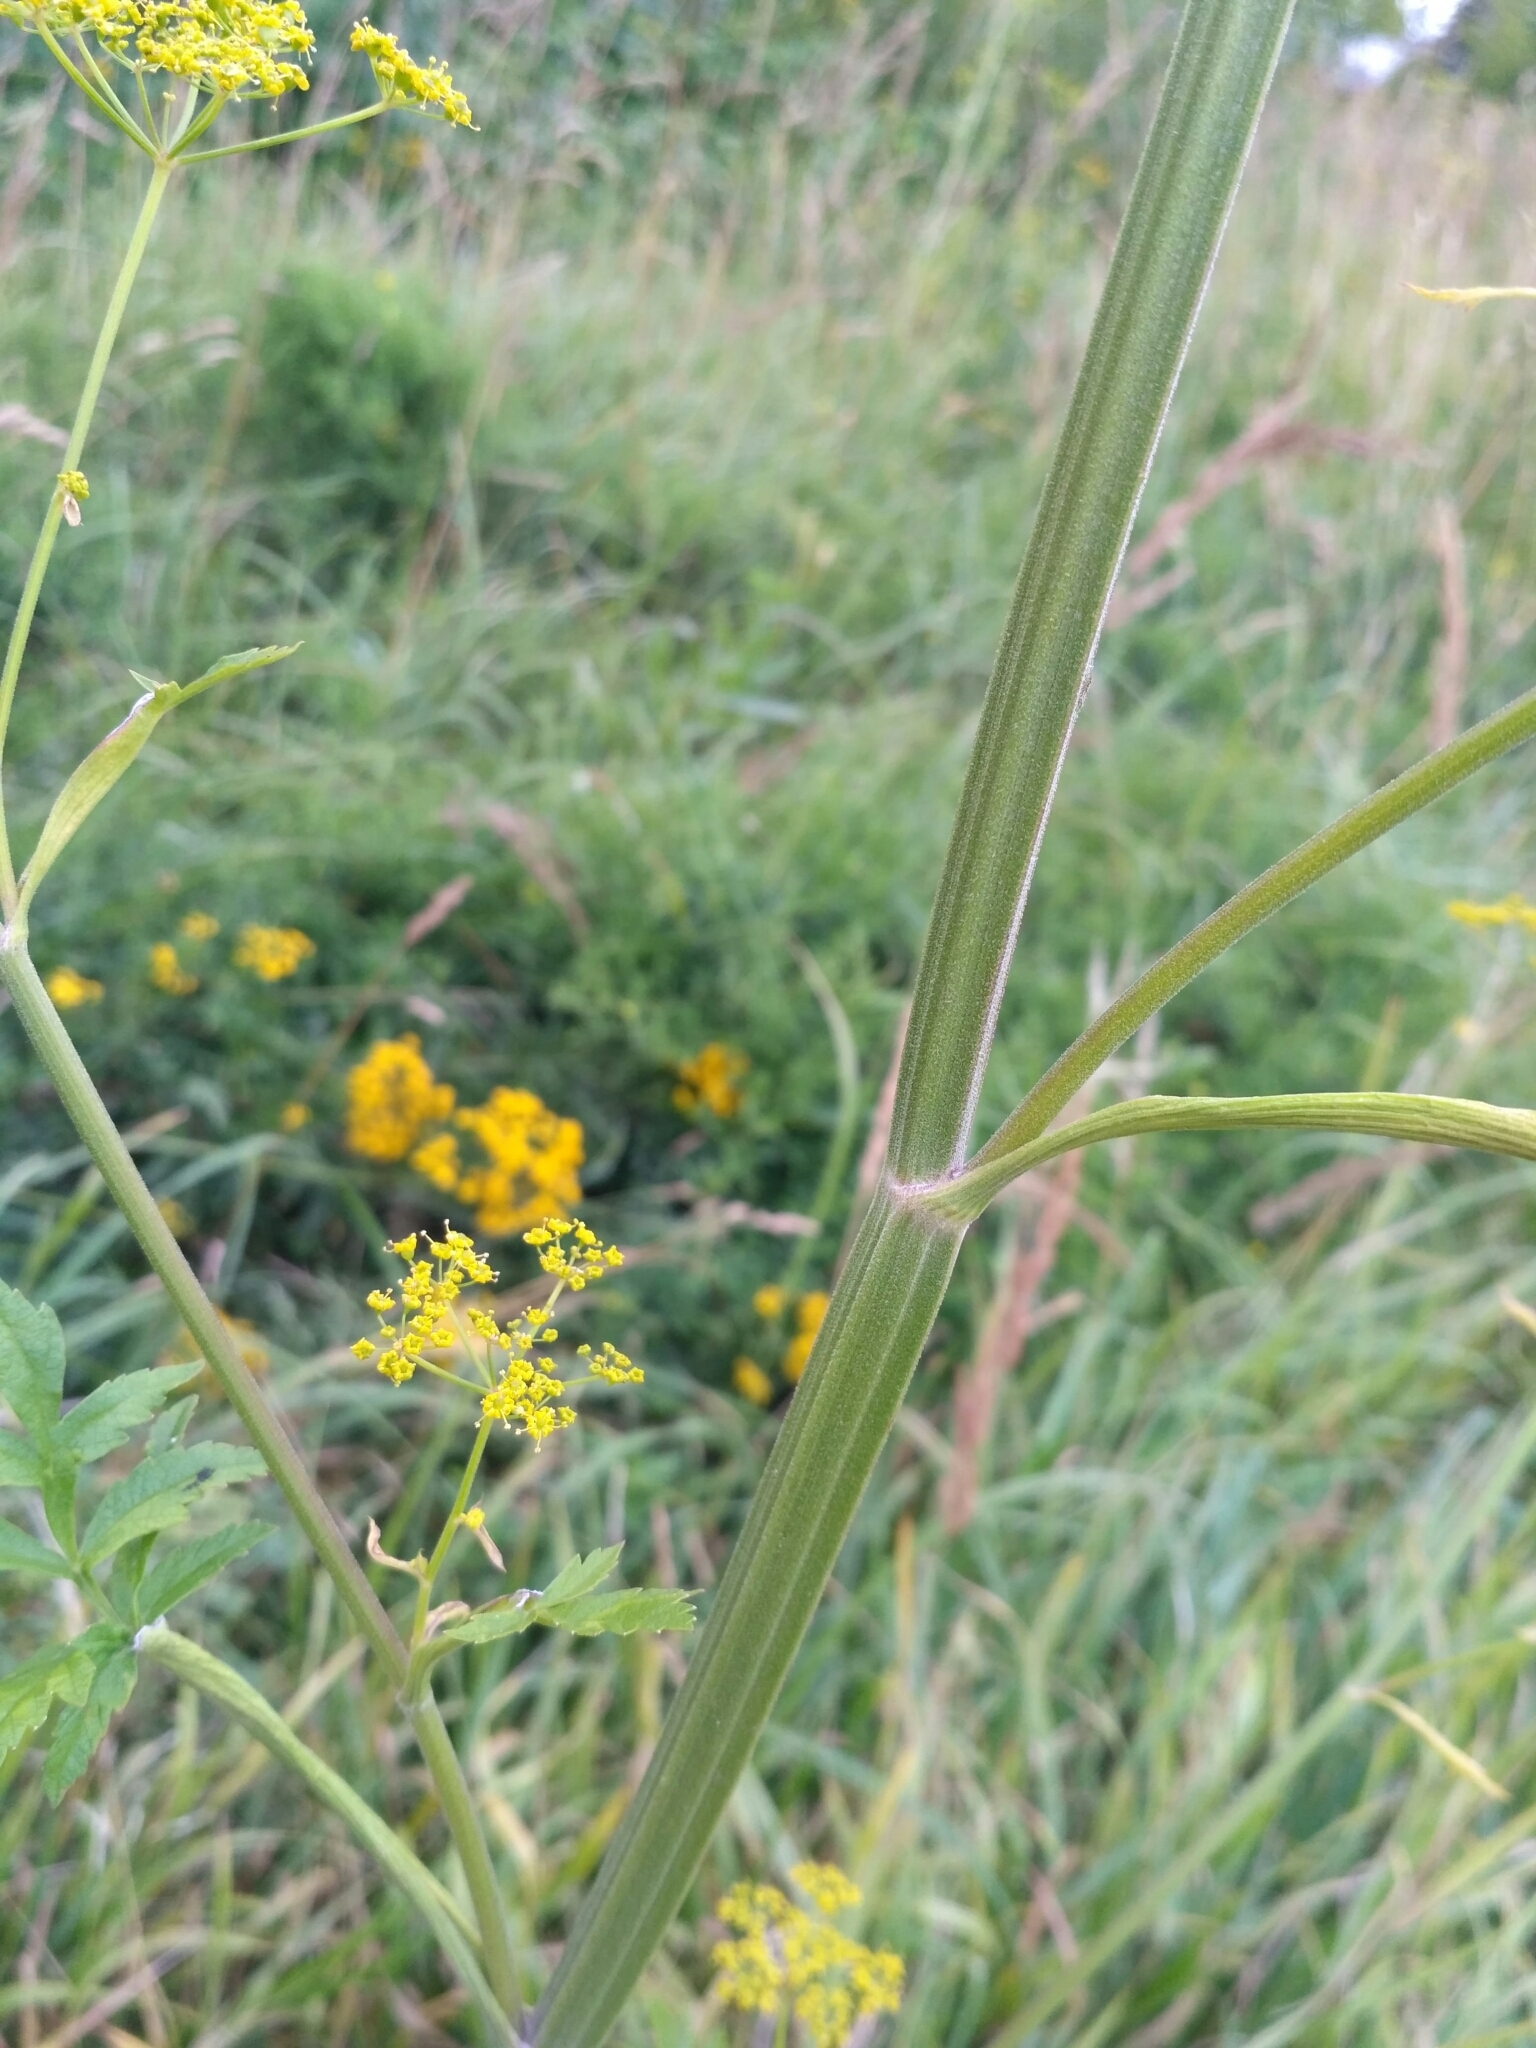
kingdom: Plantae
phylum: Tracheophyta
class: Magnoliopsida
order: Apiales
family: Apiaceae
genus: Pastinaca
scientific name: Pastinaca sativa
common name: Wild parsnip
